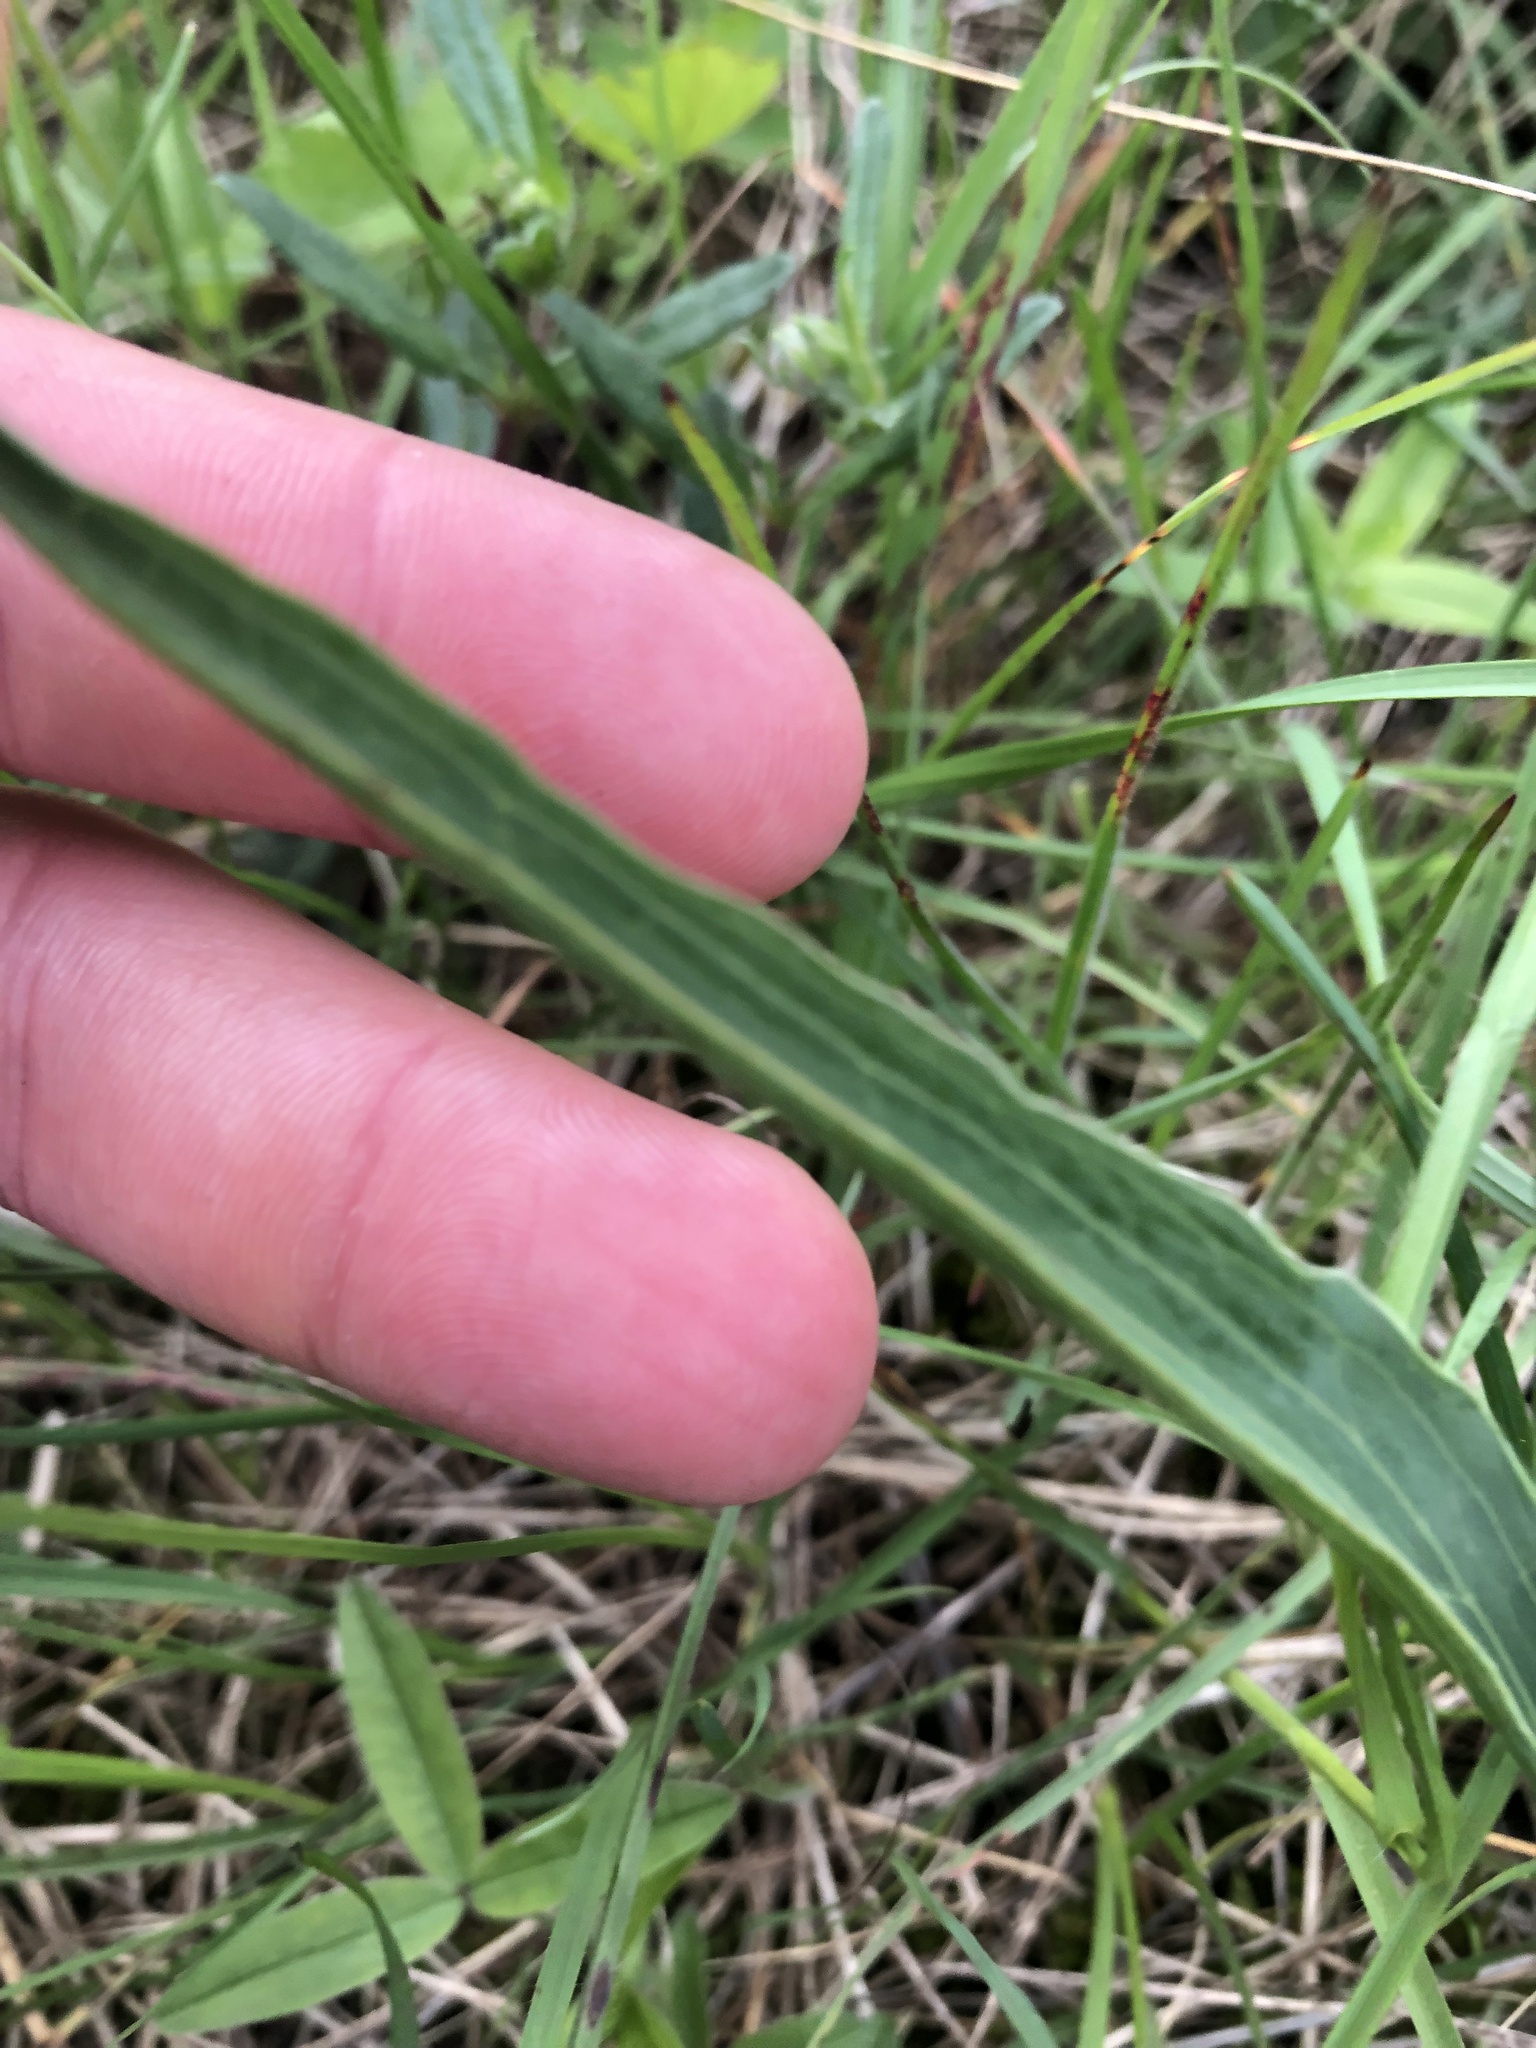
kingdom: Plantae
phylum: Tracheophyta
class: Magnoliopsida
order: Asterales
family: Asteraceae
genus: Takhtajaniantha
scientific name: Takhtajaniantha austriaca
